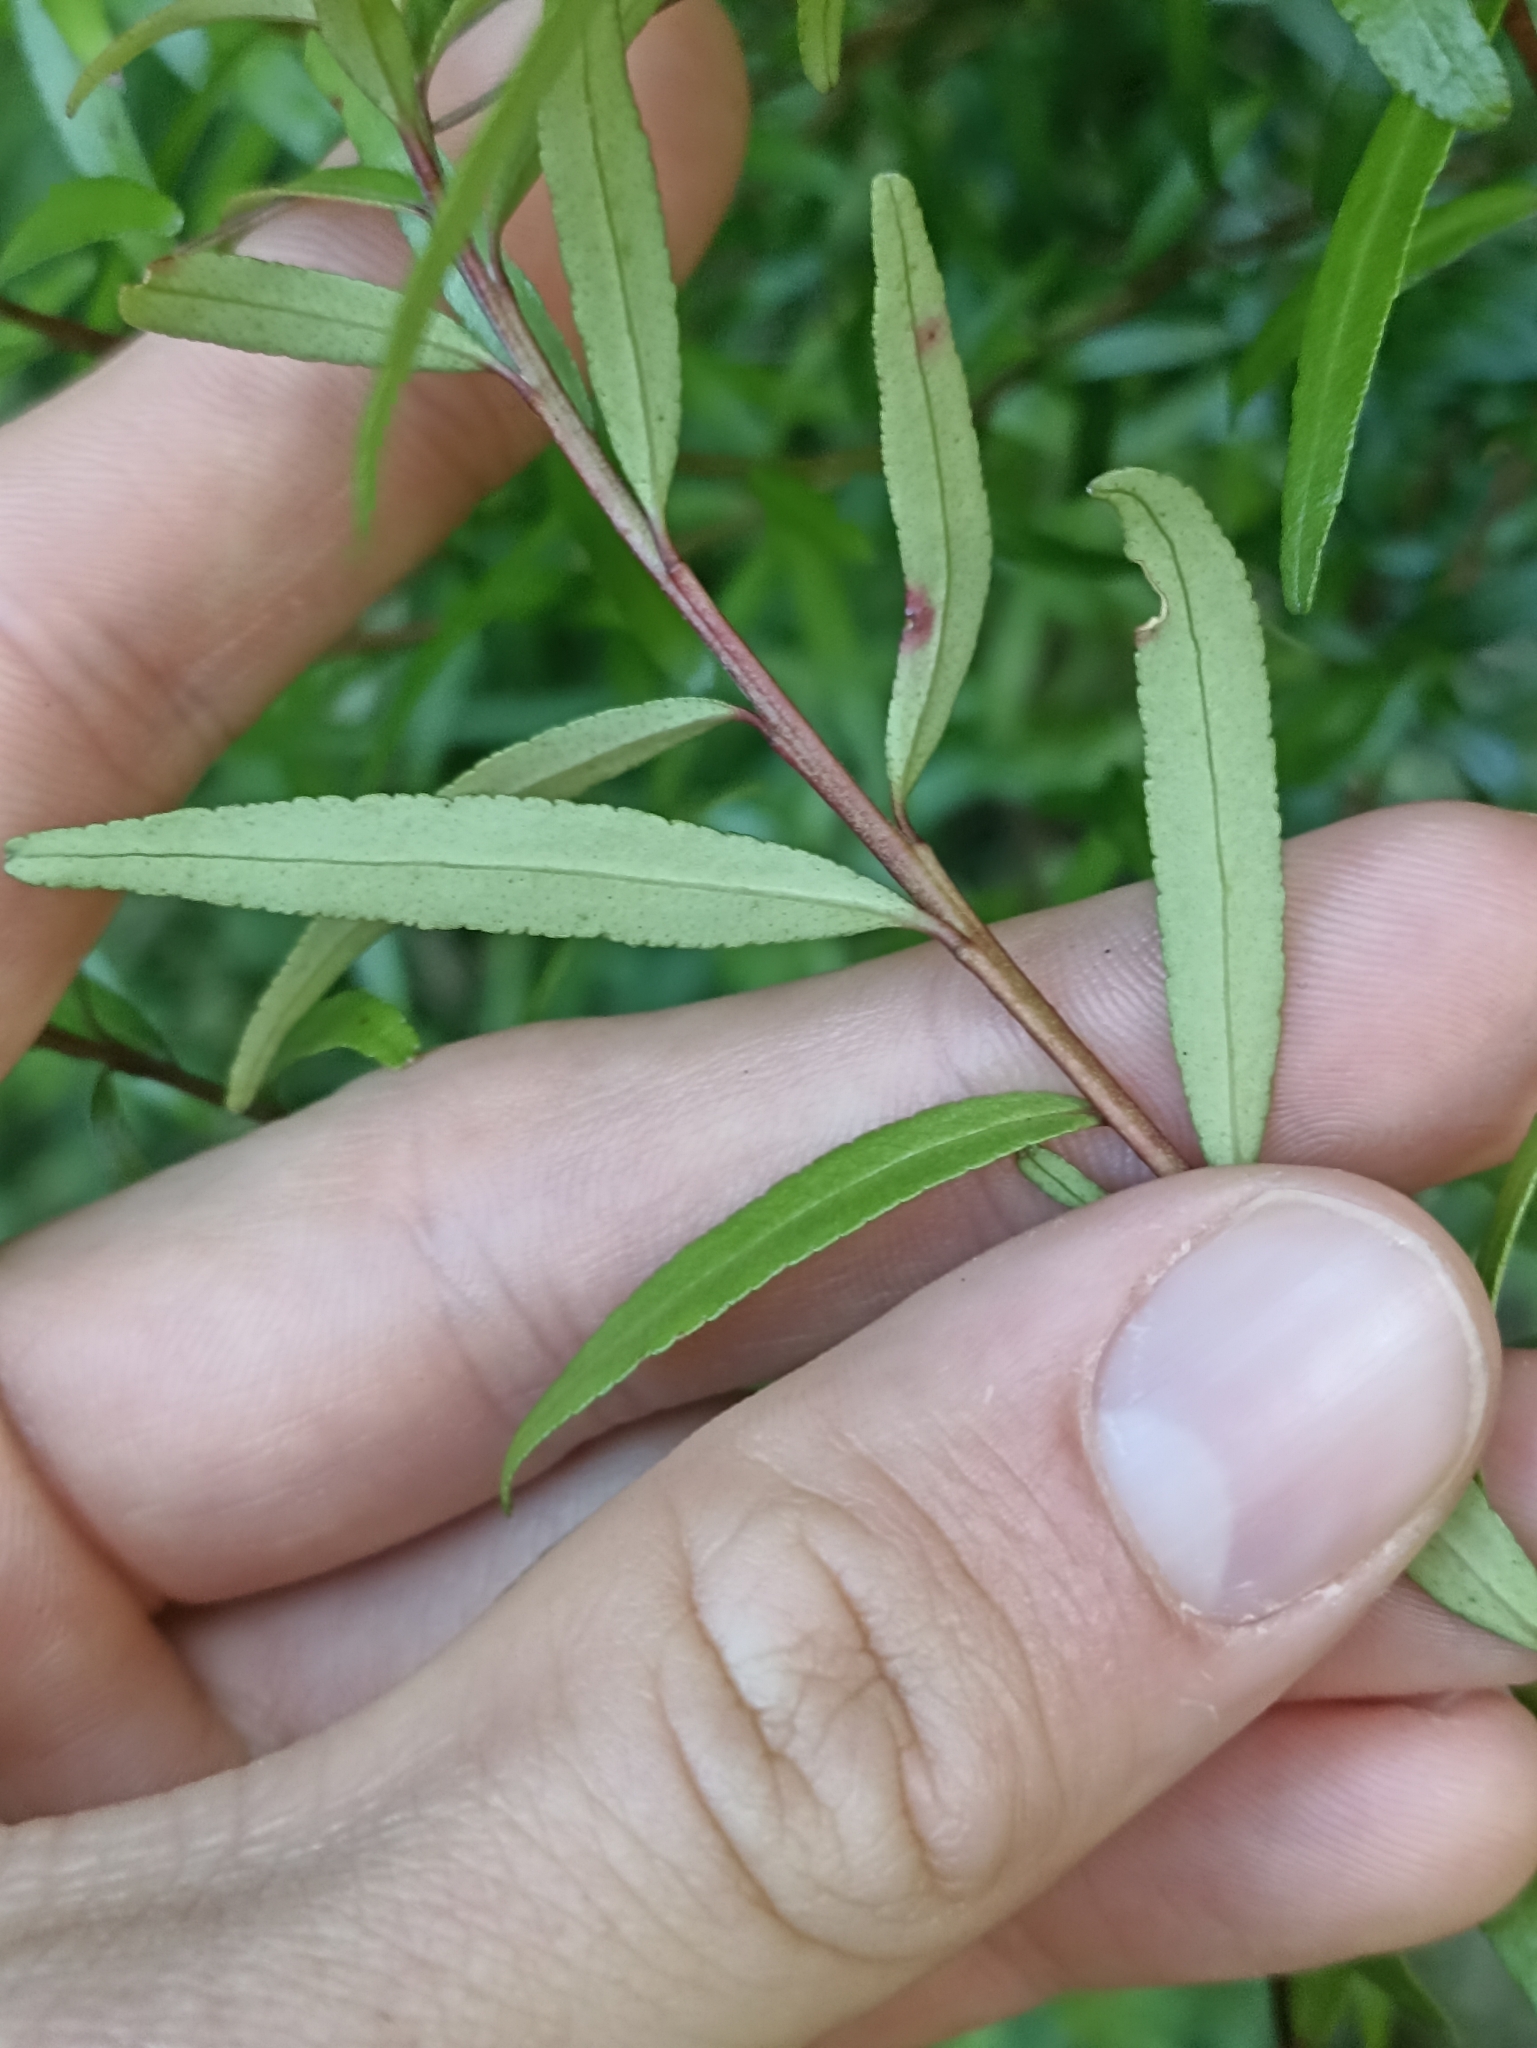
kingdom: Plantae
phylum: Tracheophyta
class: Magnoliopsida
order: Sapindales
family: Rutaceae
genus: Leionema
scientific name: Leionema nudum
